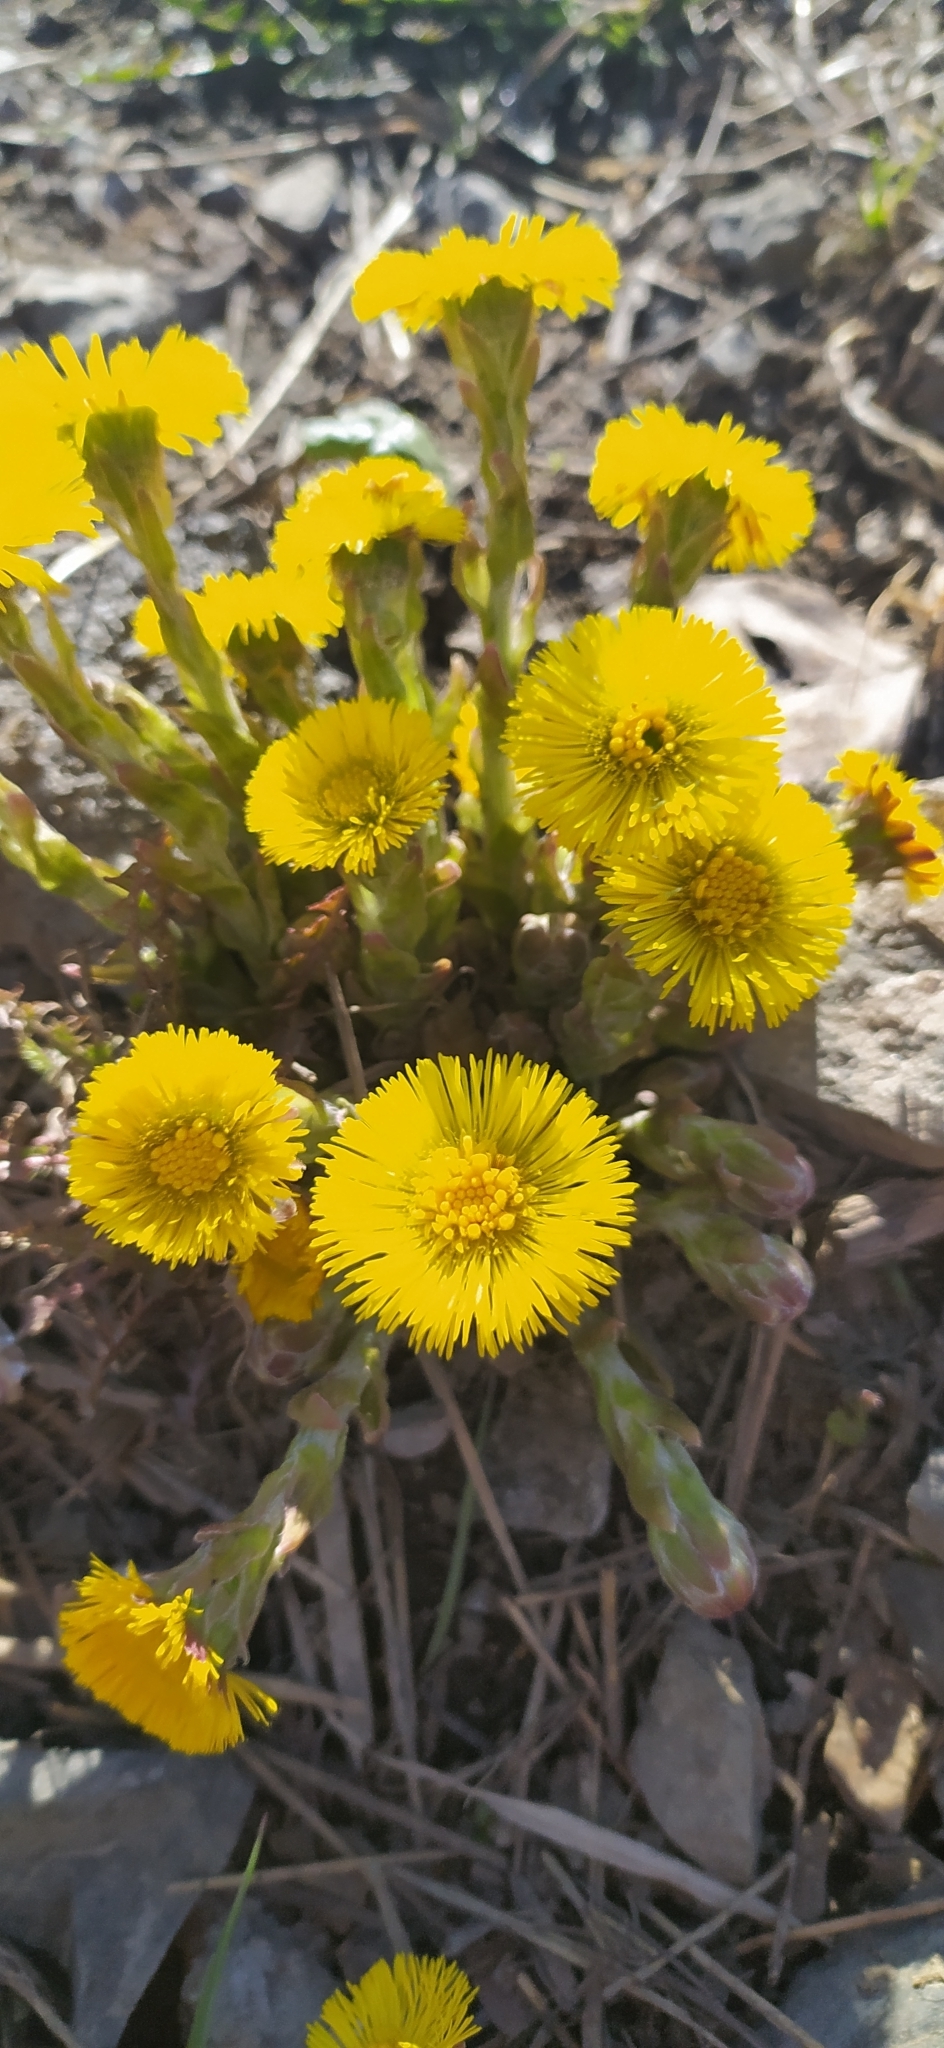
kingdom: Plantae
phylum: Tracheophyta
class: Magnoliopsida
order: Asterales
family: Asteraceae
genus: Tussilago
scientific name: Tussilago farfara
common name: Coltsfoot
